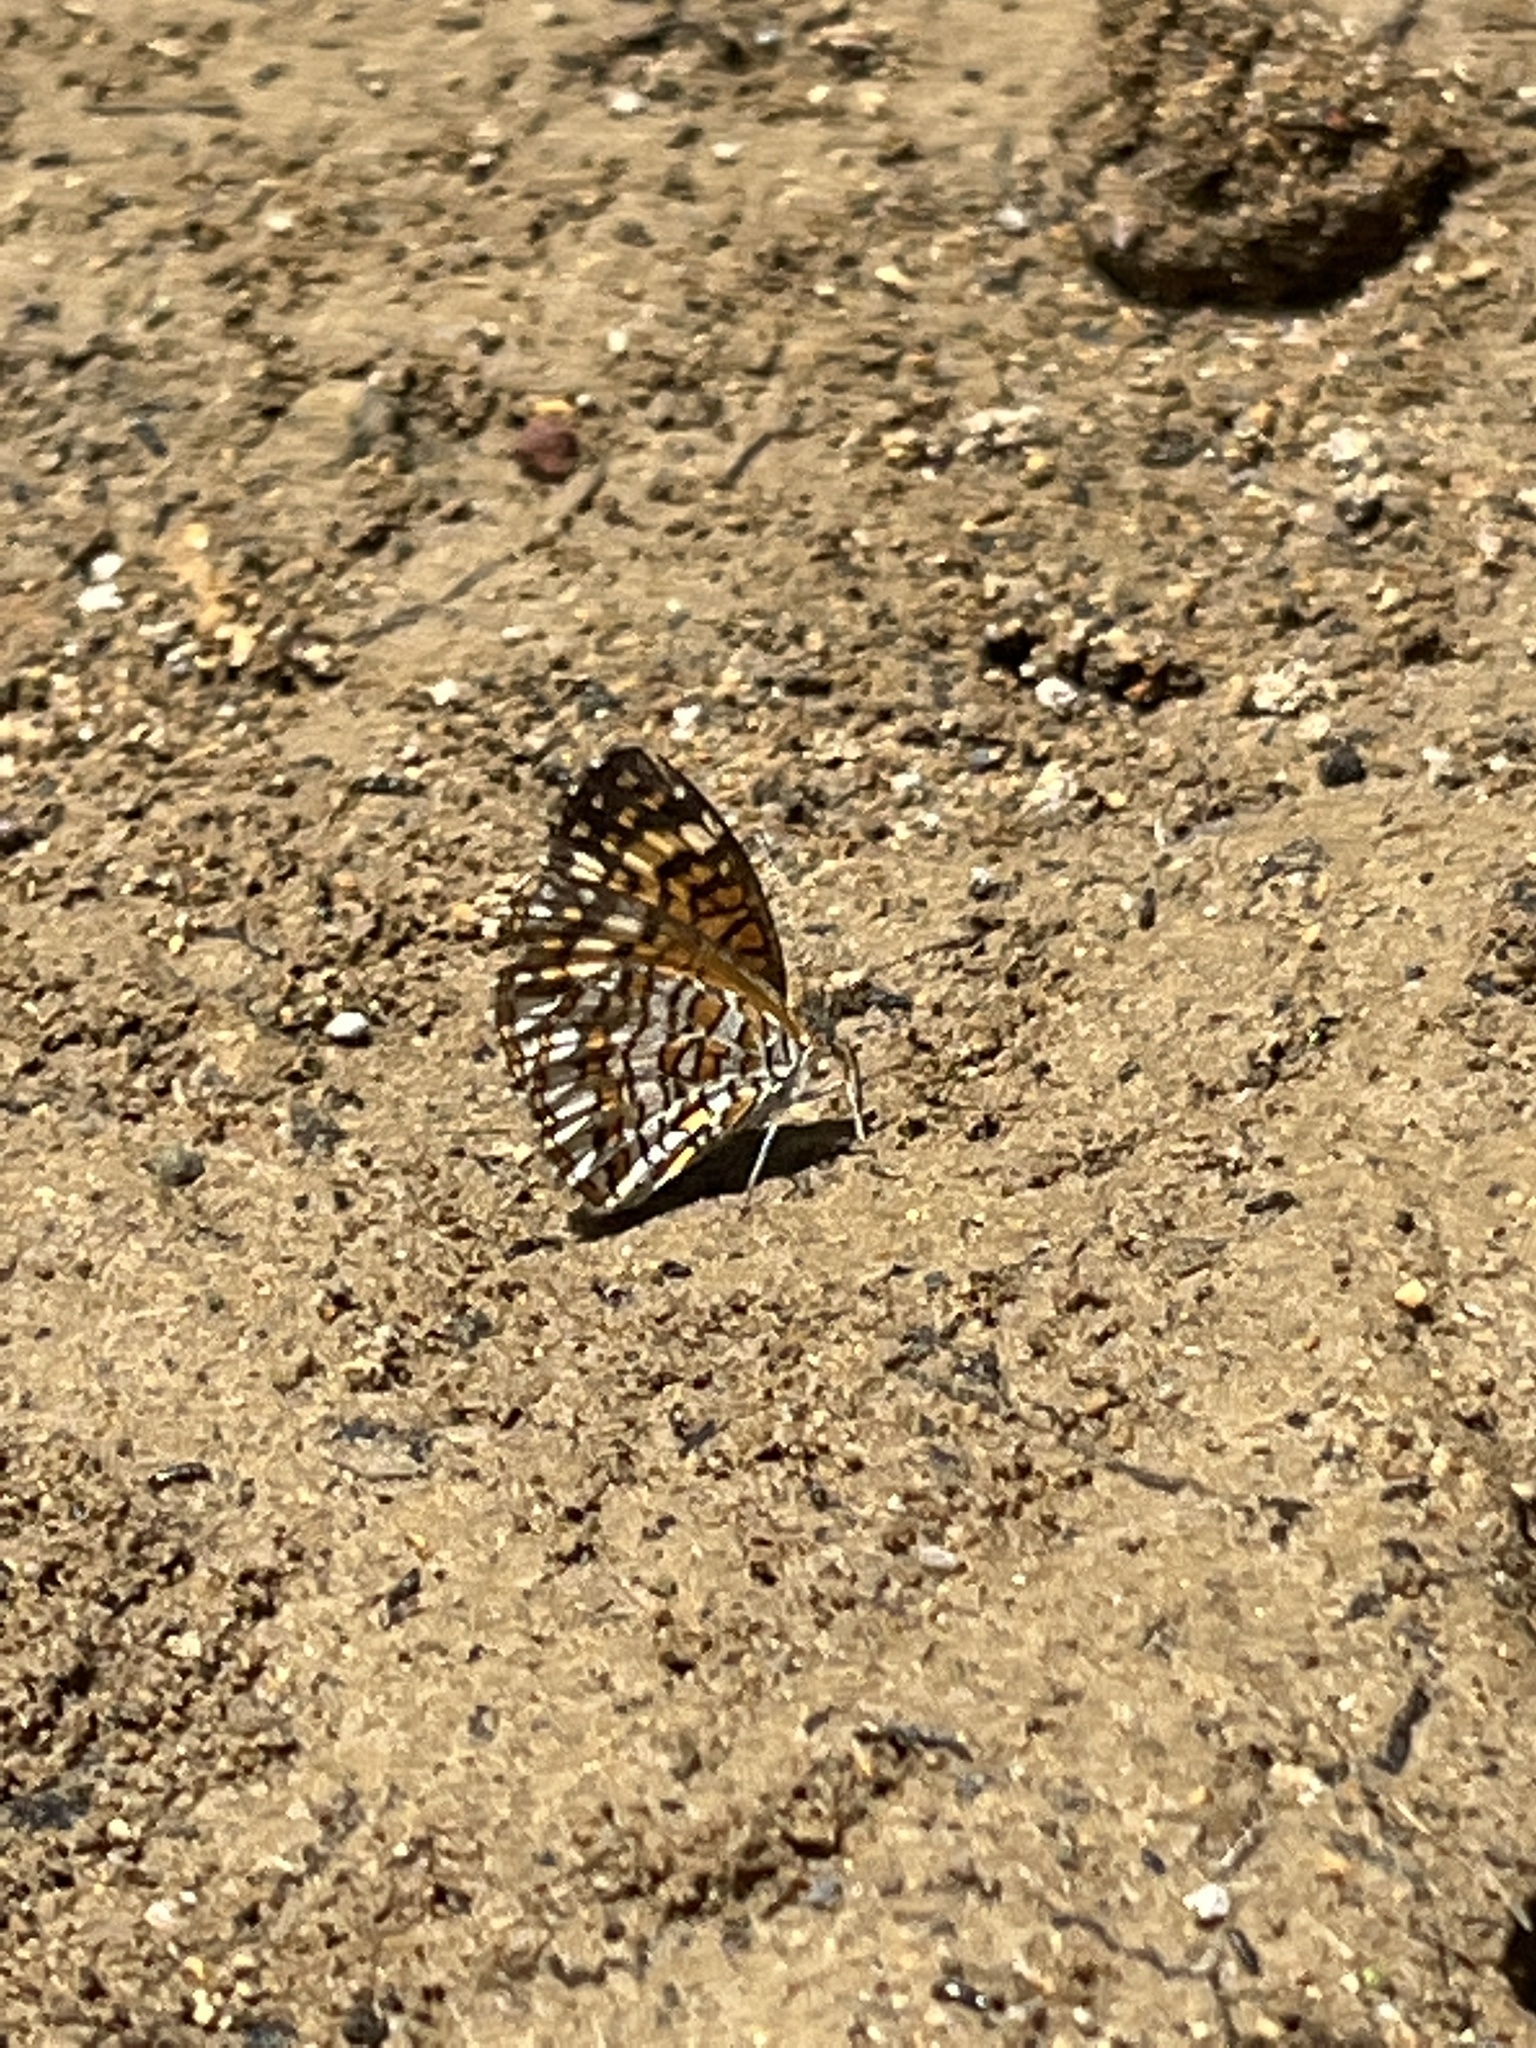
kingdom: Animalia
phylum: Arthropoda
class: Insecta
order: Lepidoptera
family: Nymphalidae
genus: Texola
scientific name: Texola elada
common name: Elada checkerspot
